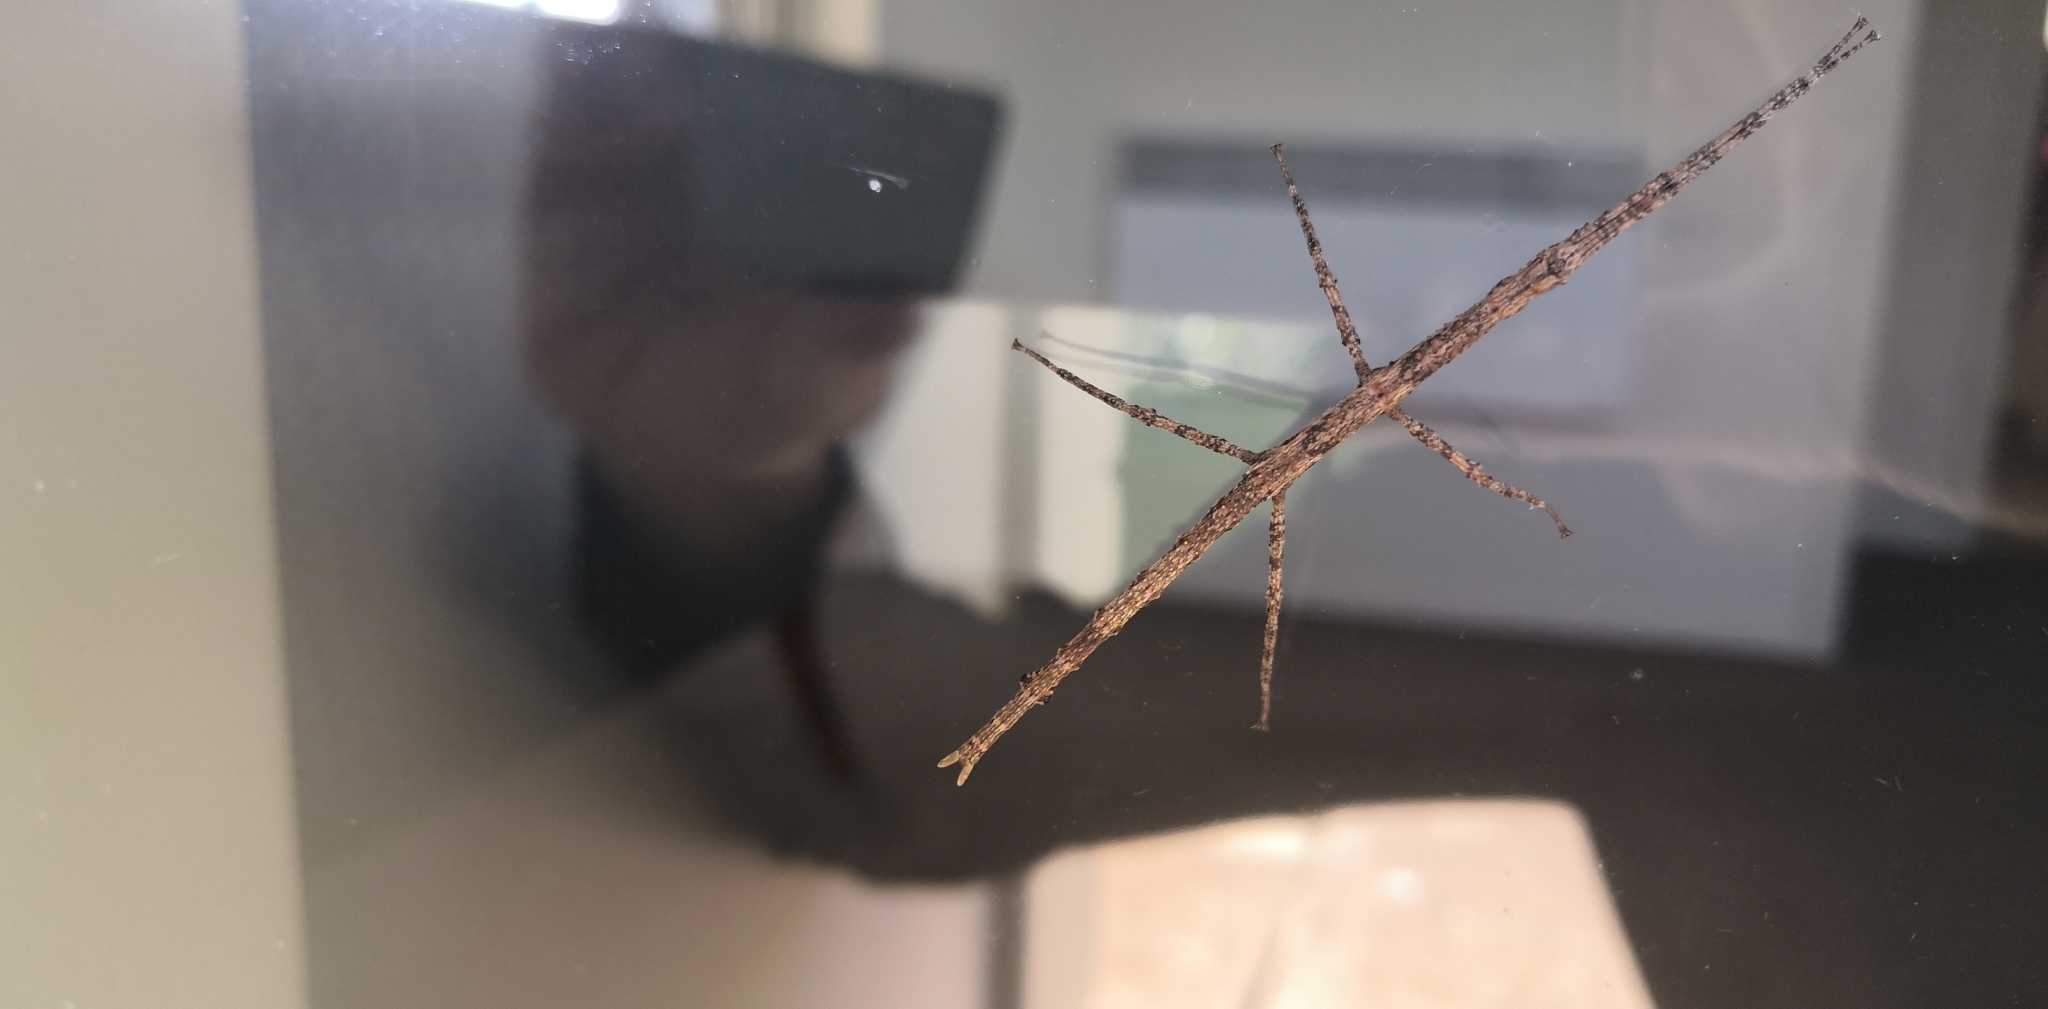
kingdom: Animalia
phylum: Arthropoda
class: Insecta
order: Phasmida
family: Phasmatidae
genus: Clitarchus
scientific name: Clitarchus hookeri
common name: Smooth stick insect
